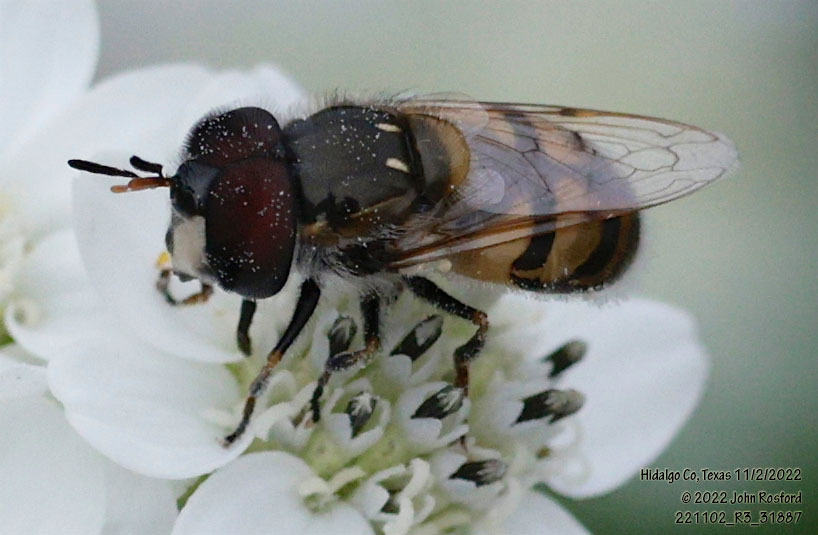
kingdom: Animalia
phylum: Arthropoda
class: Insecta
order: Diptera
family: Syrphidae
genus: Copestylum
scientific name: Copestylum marginatum
